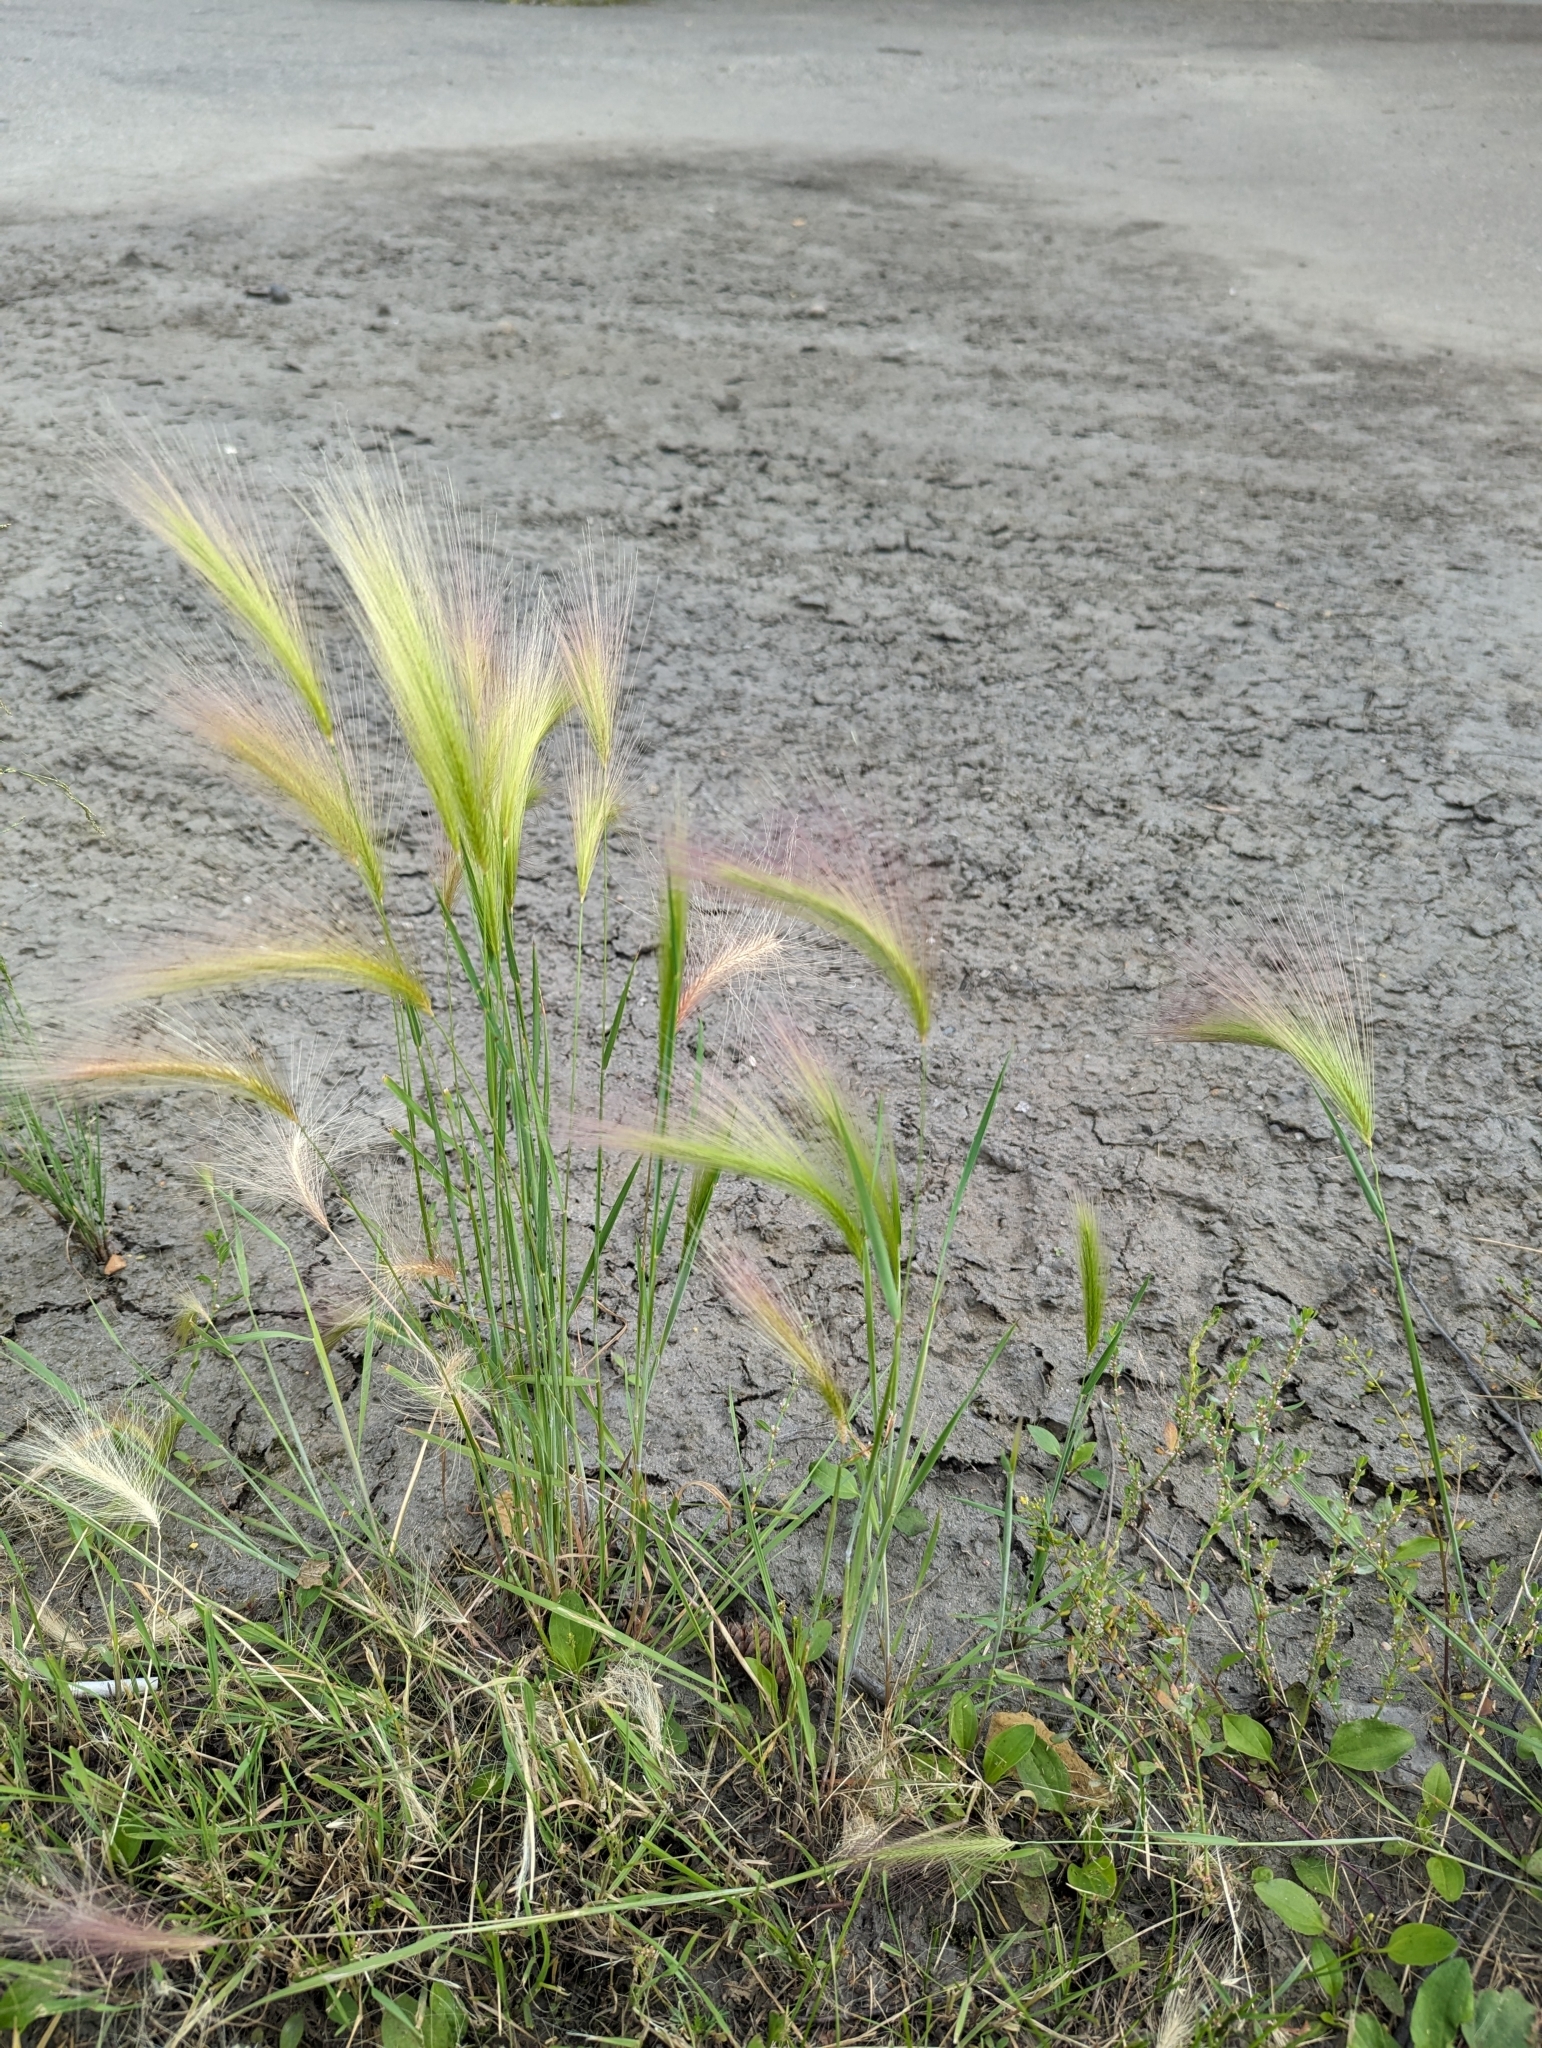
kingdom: Plantae
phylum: Tracheophyta
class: Liliopsida
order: Poales
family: Poaceae
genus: Hordeum
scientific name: Hordeum jubatum
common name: Foxtail barley
